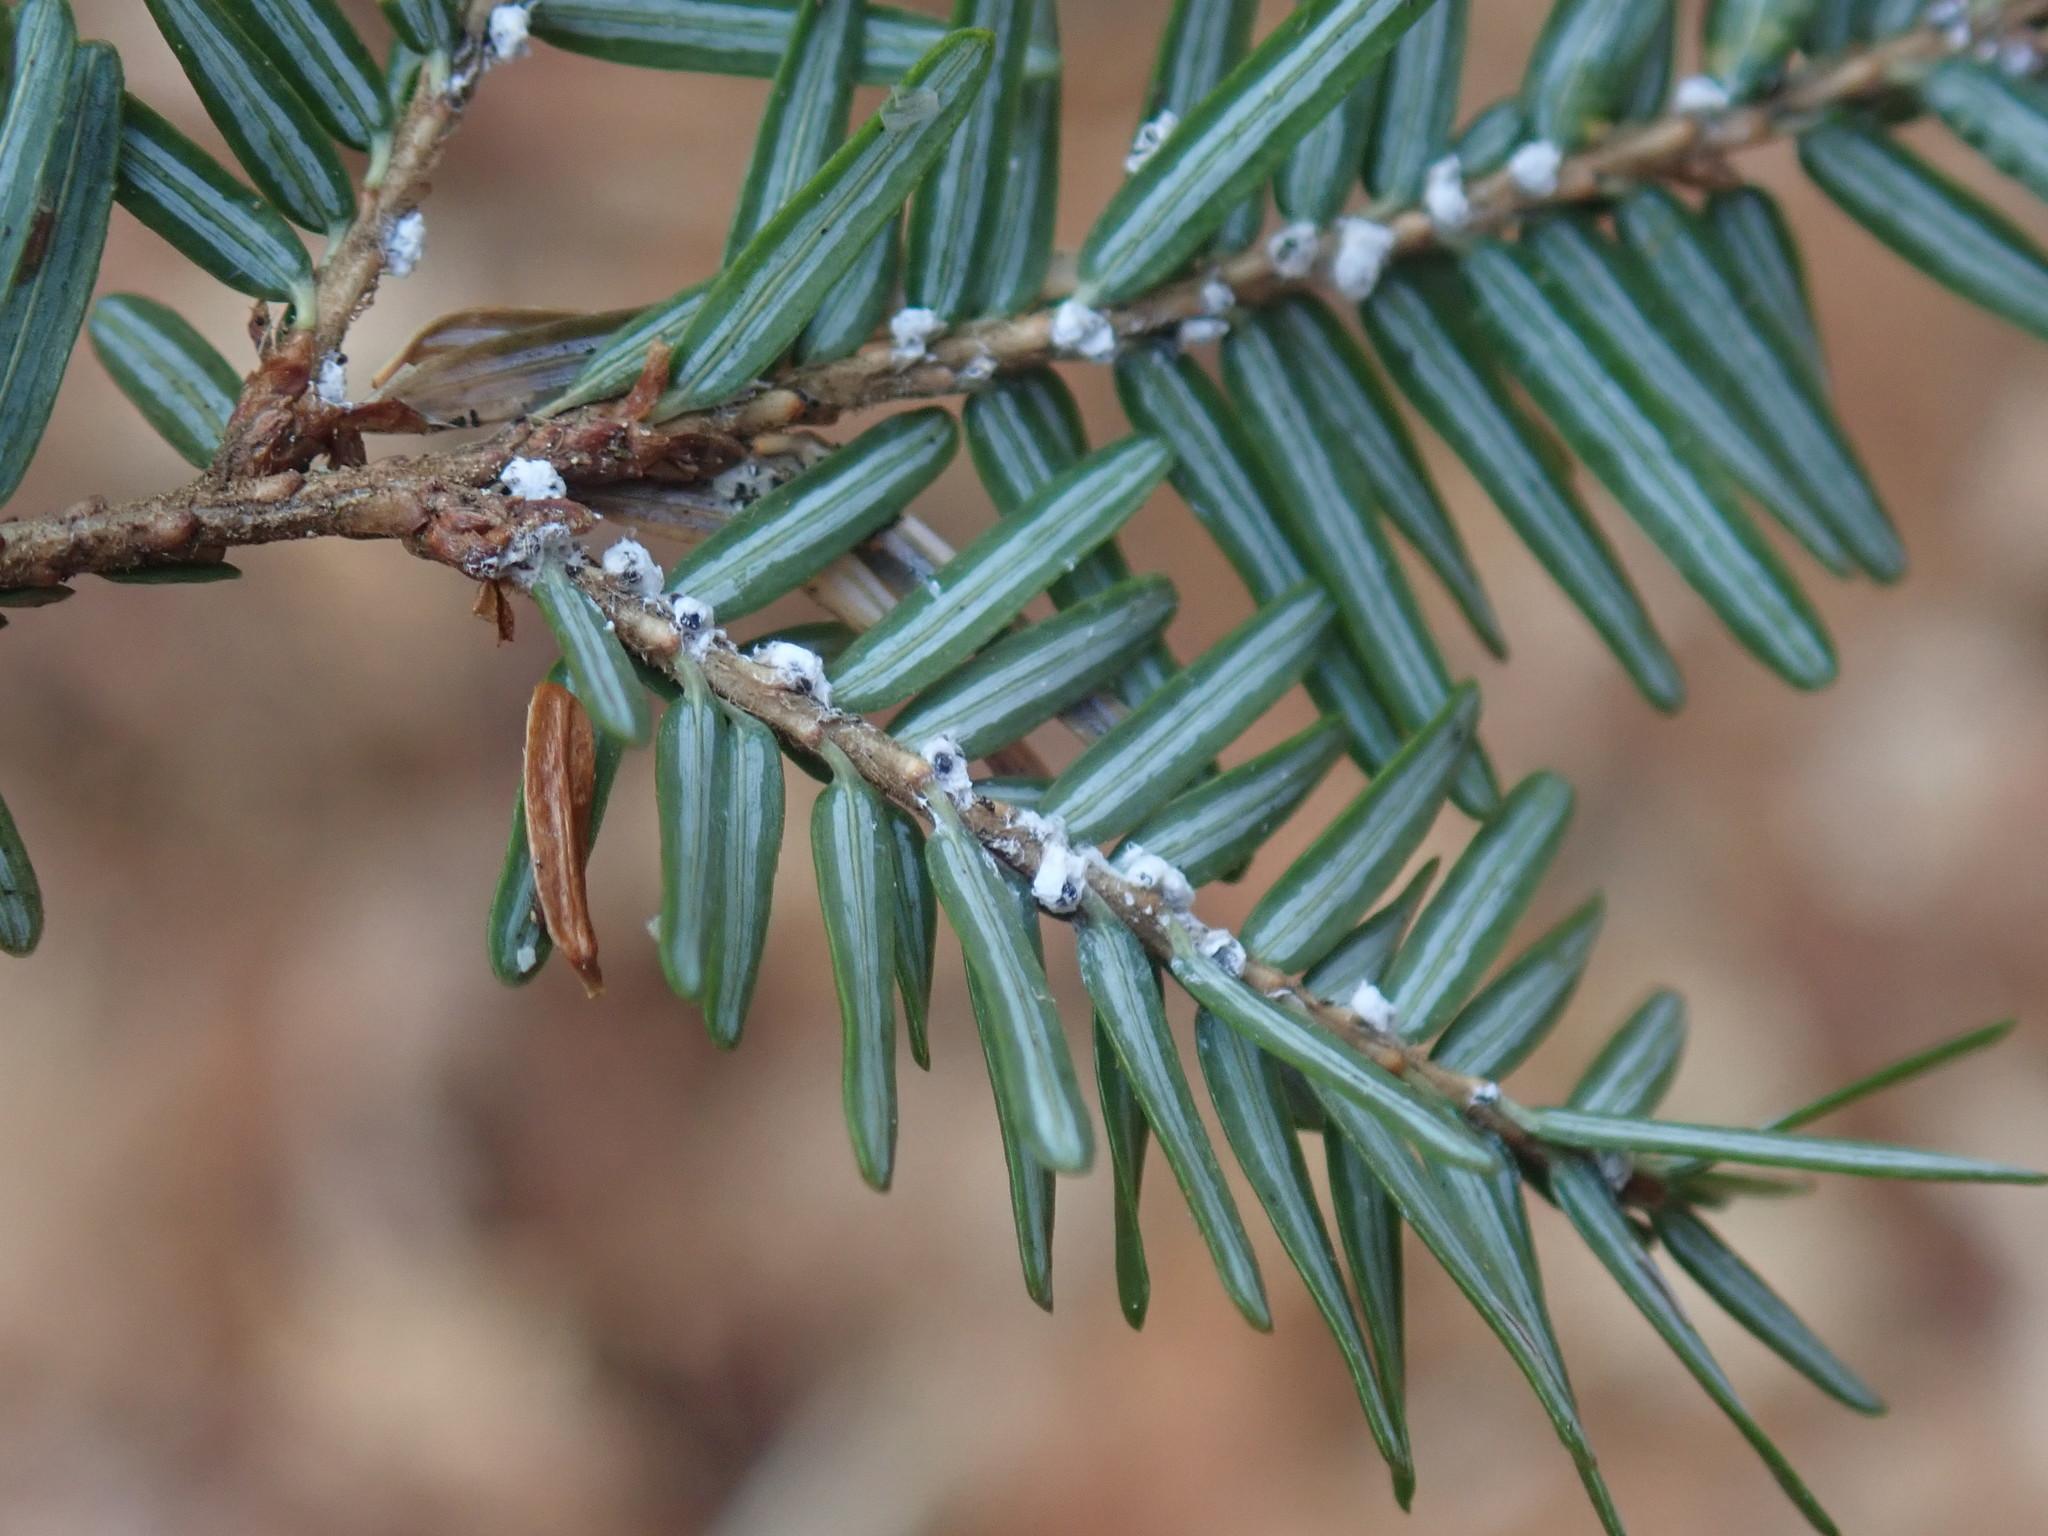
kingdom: Animalia
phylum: Arthropoda
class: Insecta
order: Hemiptera
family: Adelgidae
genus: Adelges
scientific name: Adelges tsugae
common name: Hemlock woolly adelgid
